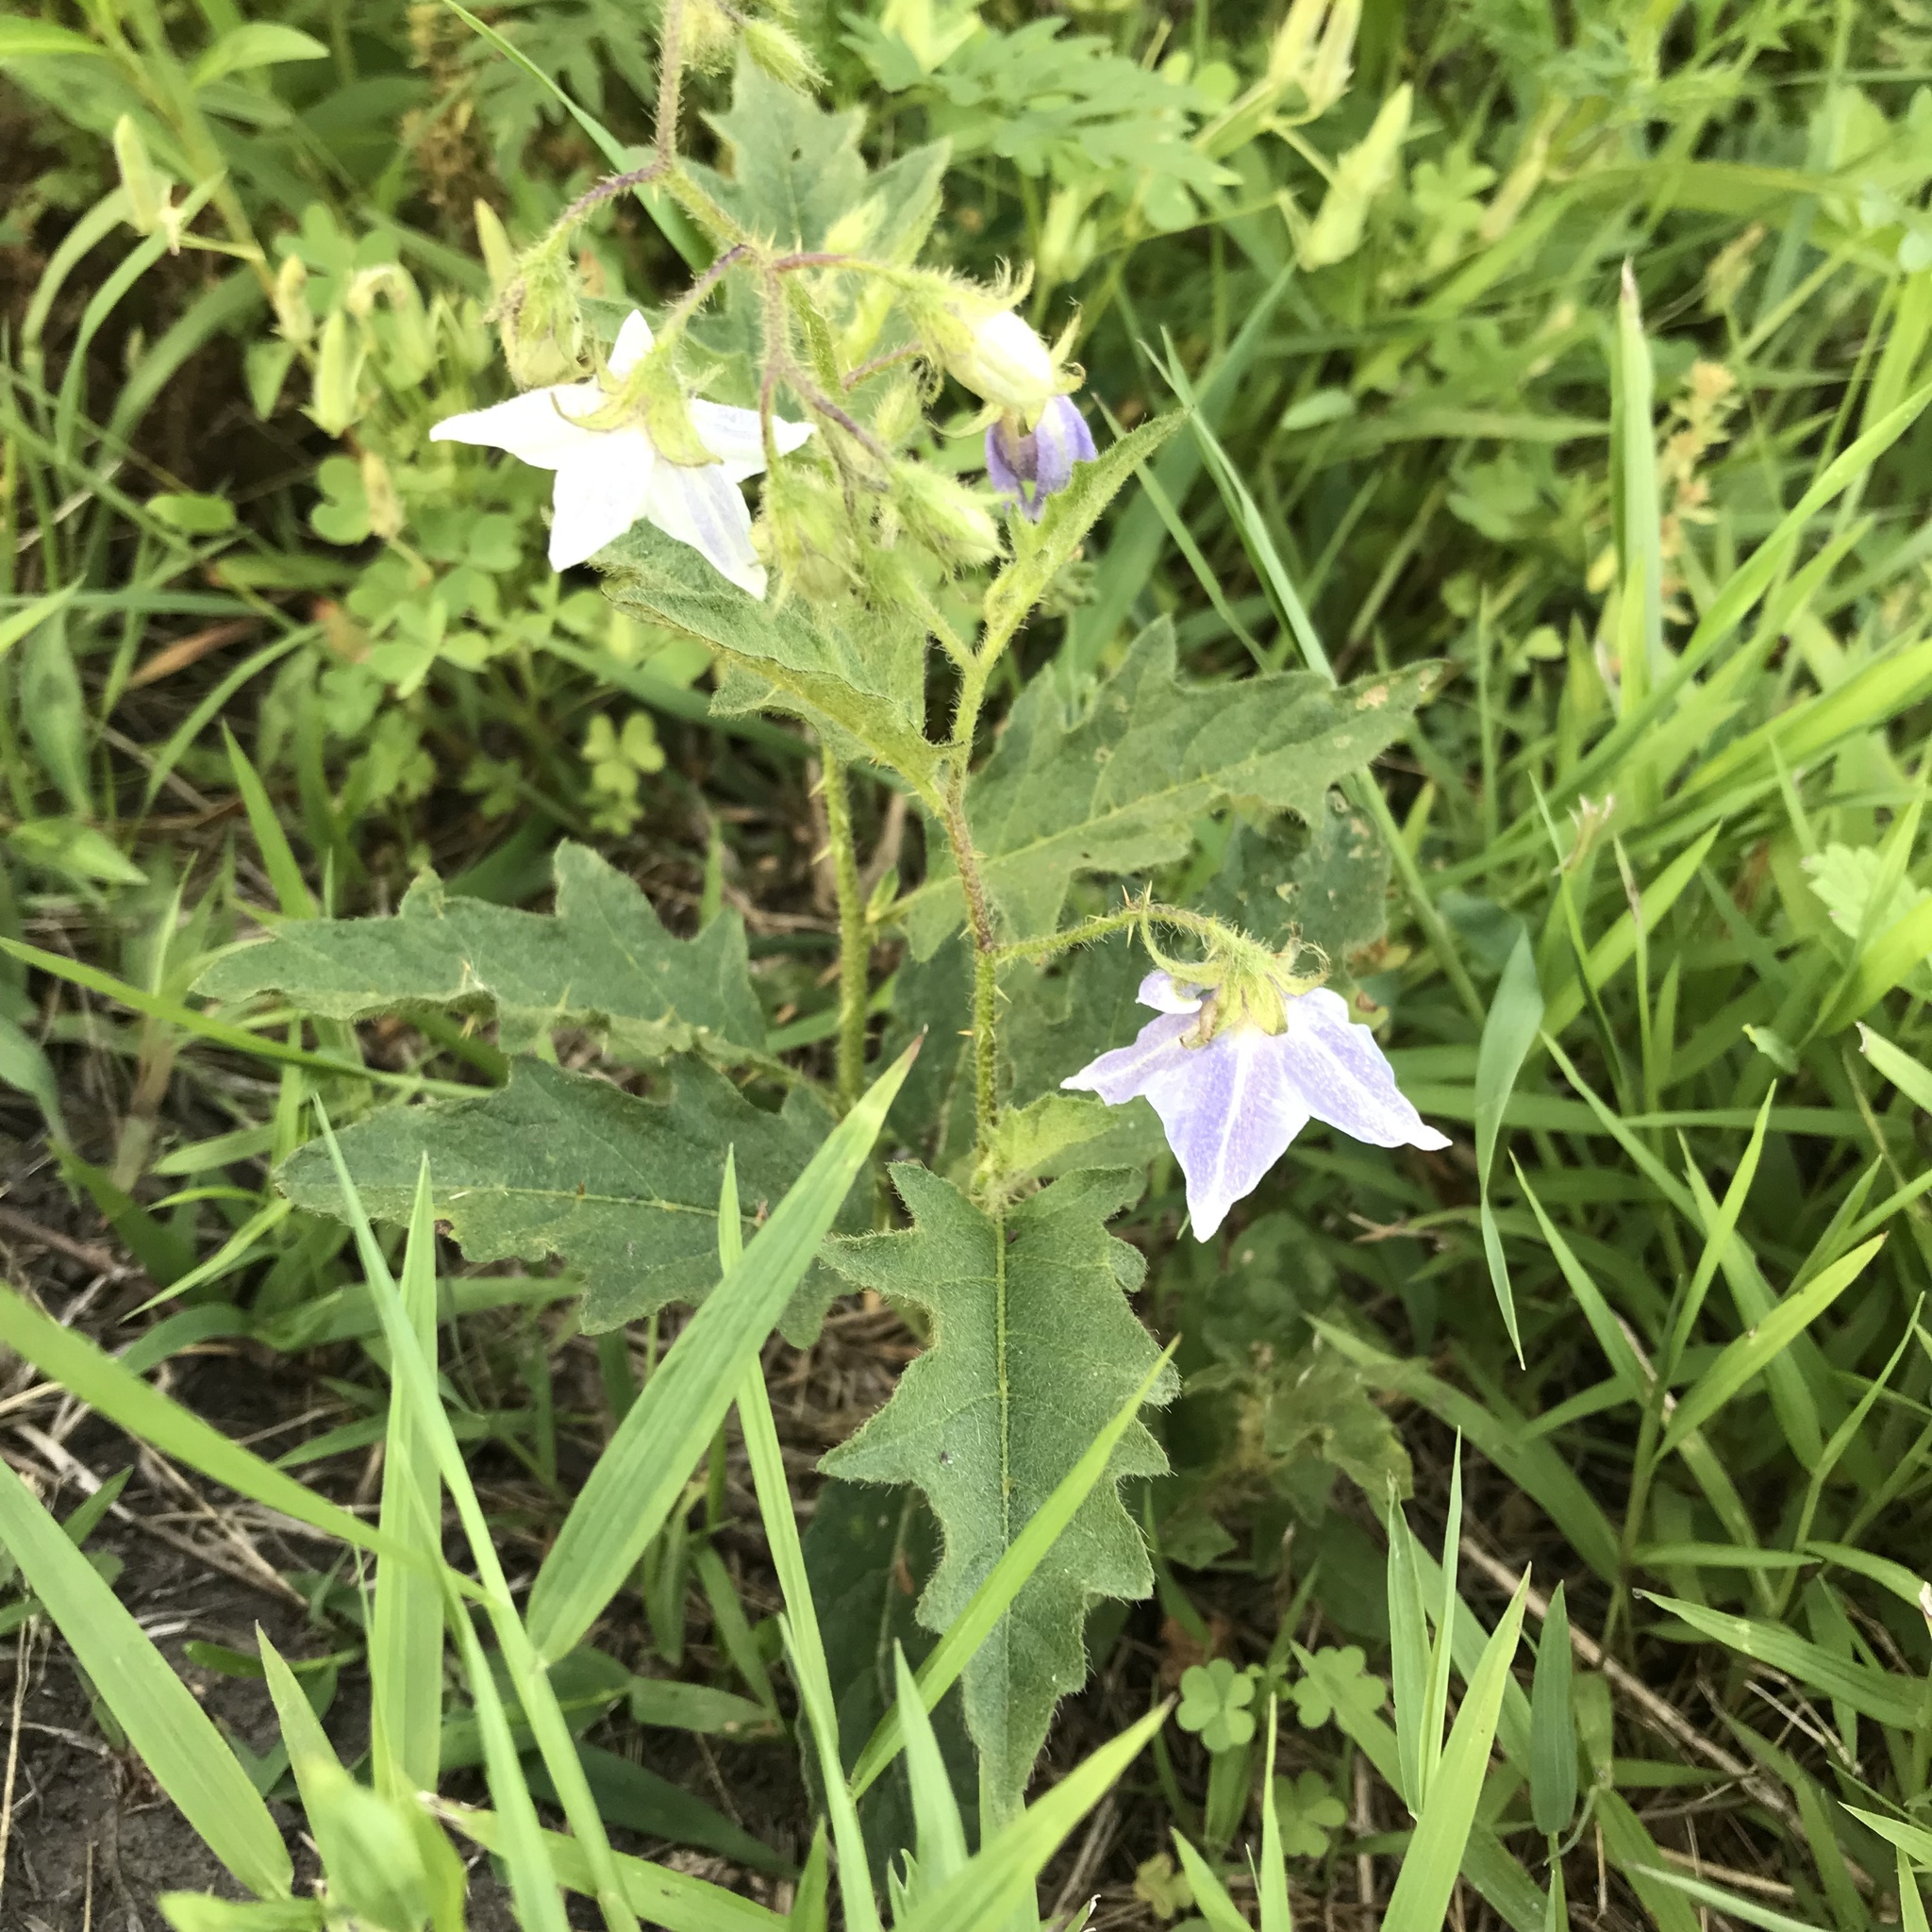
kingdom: Plantae
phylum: Tracheophyta
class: Magnoliopsida
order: Solanales
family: Solanaceae
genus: Solanum
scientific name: Solanum carolinense
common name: Horse-nettle
